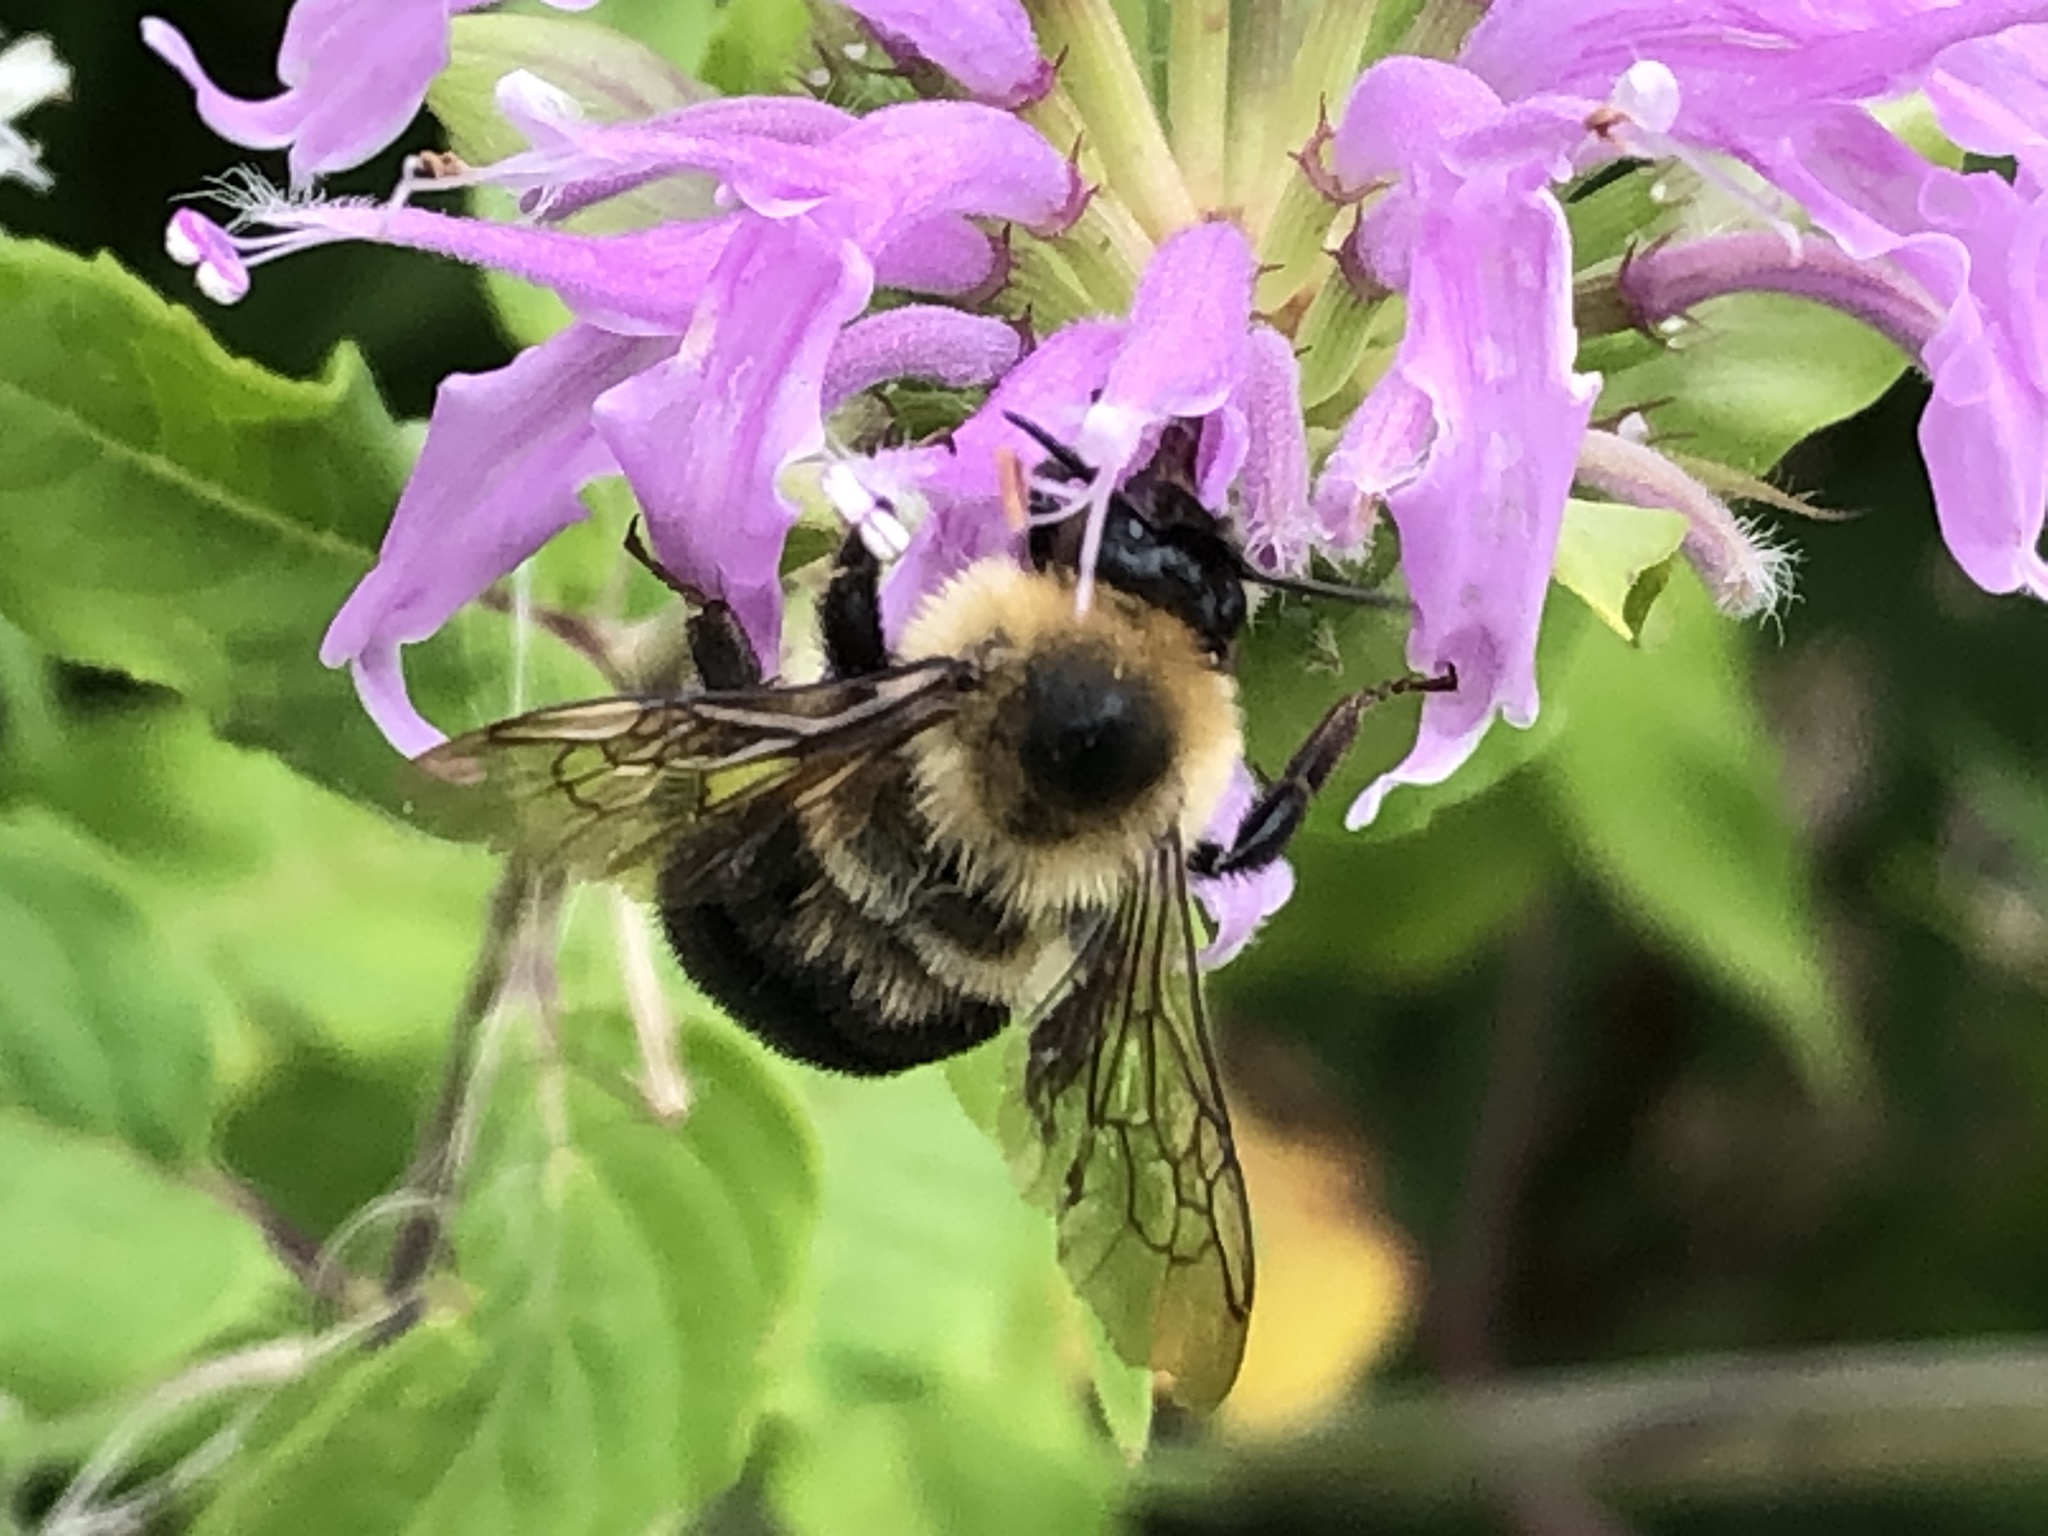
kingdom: Animalia
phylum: Arthropoda
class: Insecta
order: Hymenoptera
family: Apidae
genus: Bombus
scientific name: Bombus bimaculatus
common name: Two-spotted bumble bee
